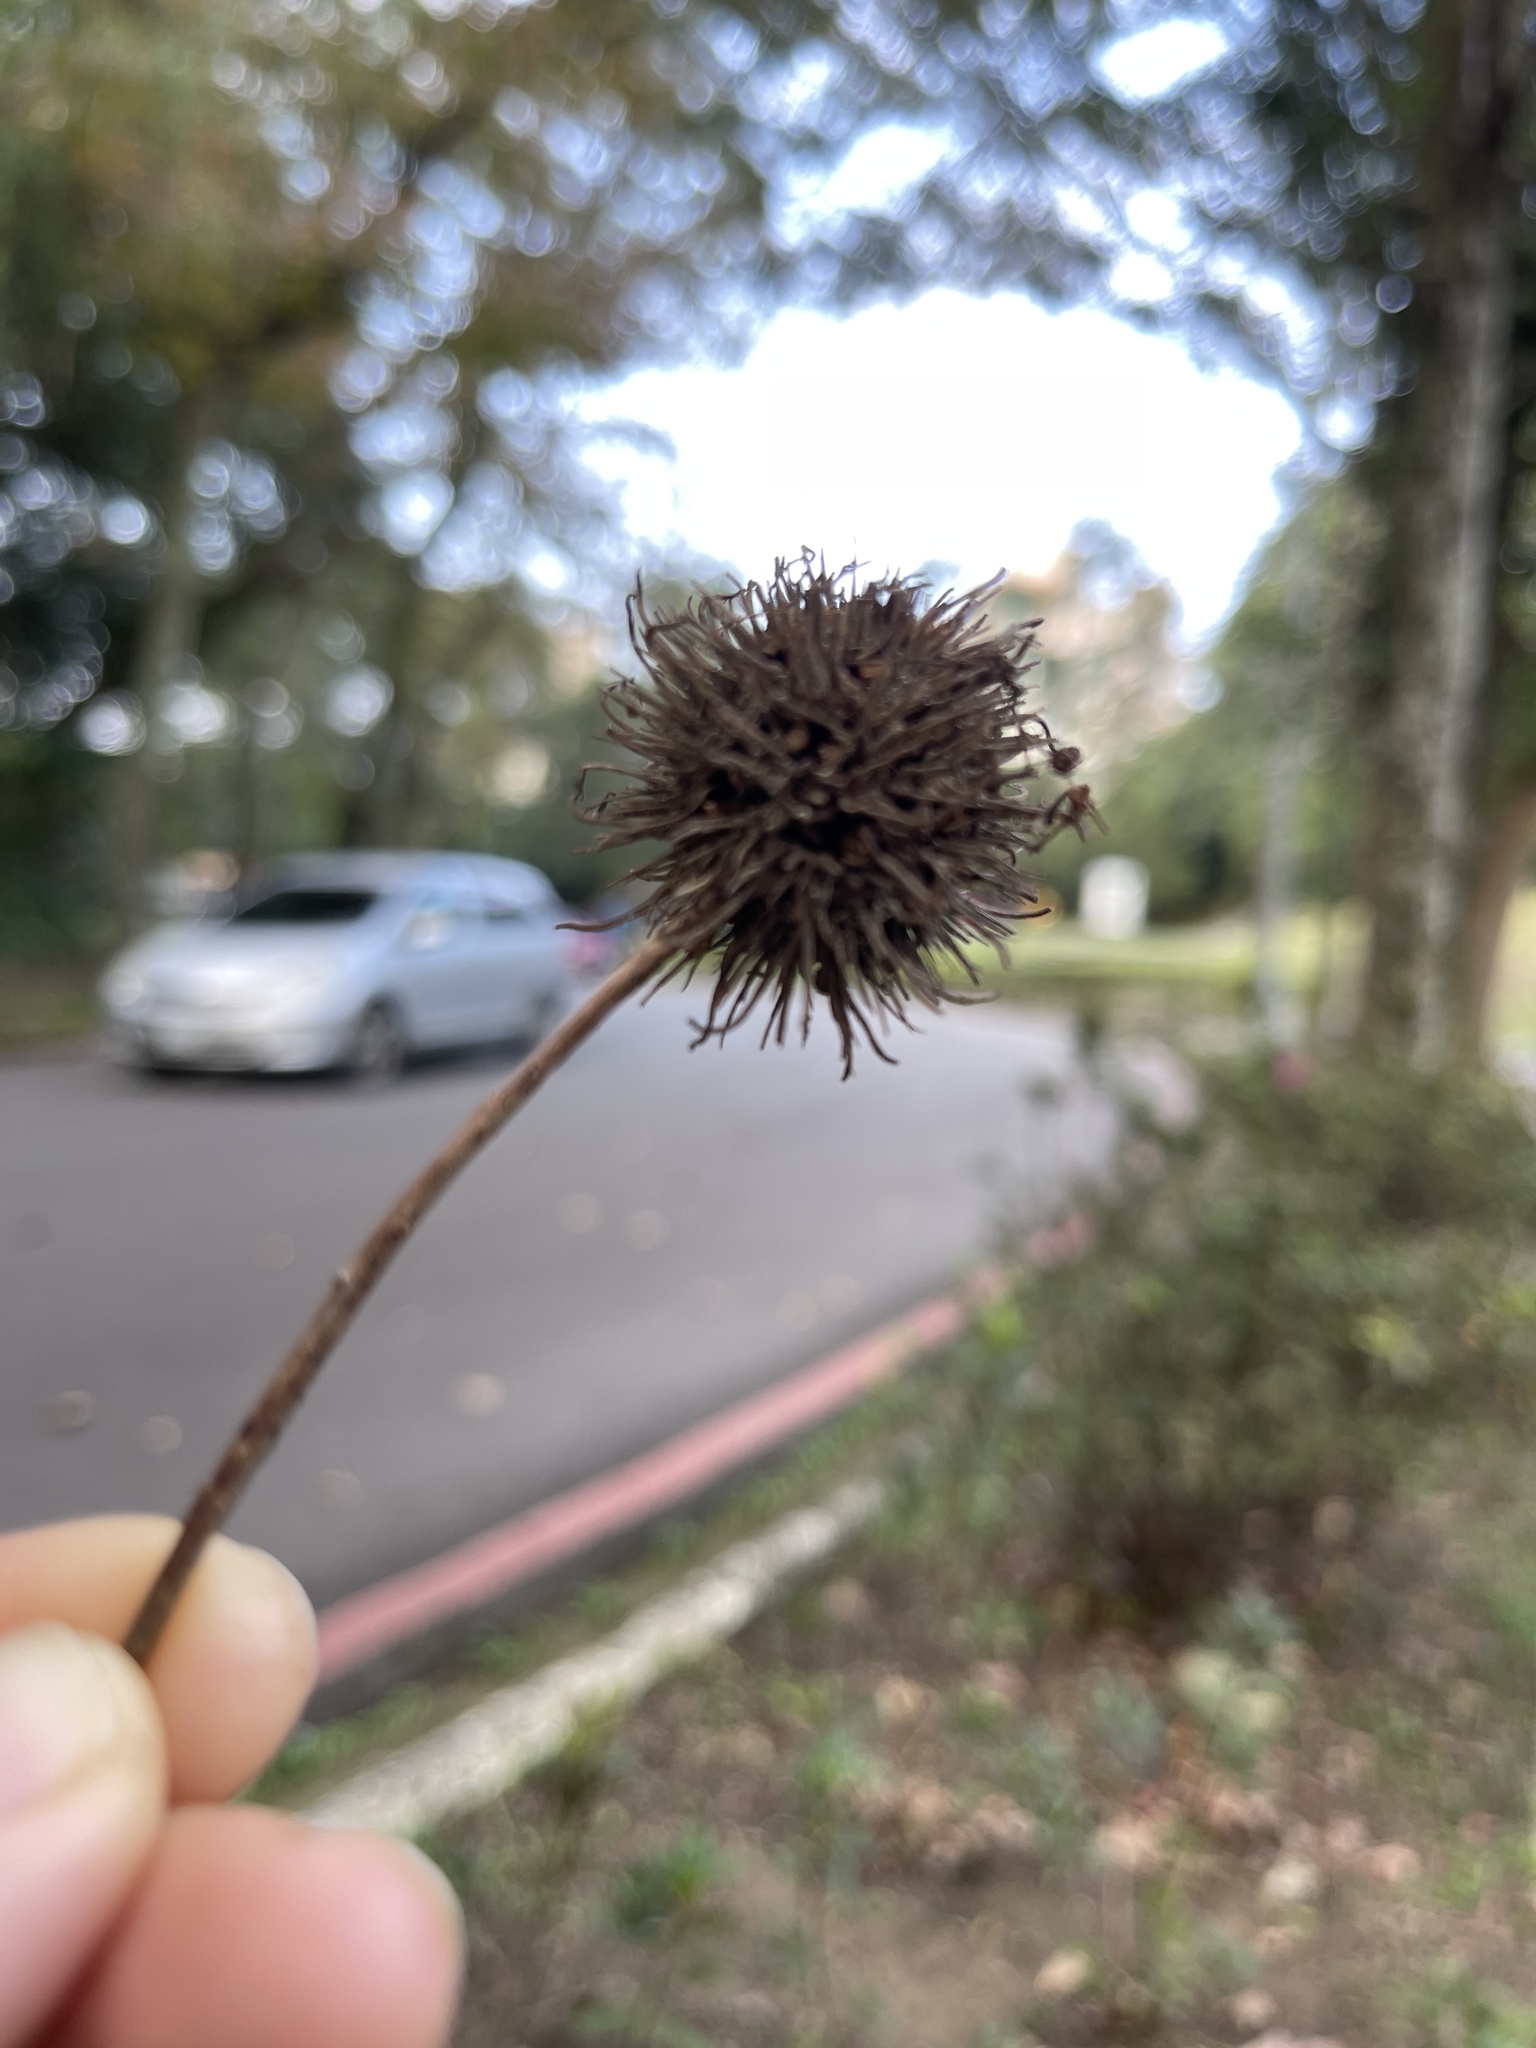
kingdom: Plantae
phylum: Tracheophyta
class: Magnoliopsida
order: Saxifragales
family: Altingiaceae
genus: Liquidambar
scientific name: Liquidambar formosana
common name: Chinese sweet gum
